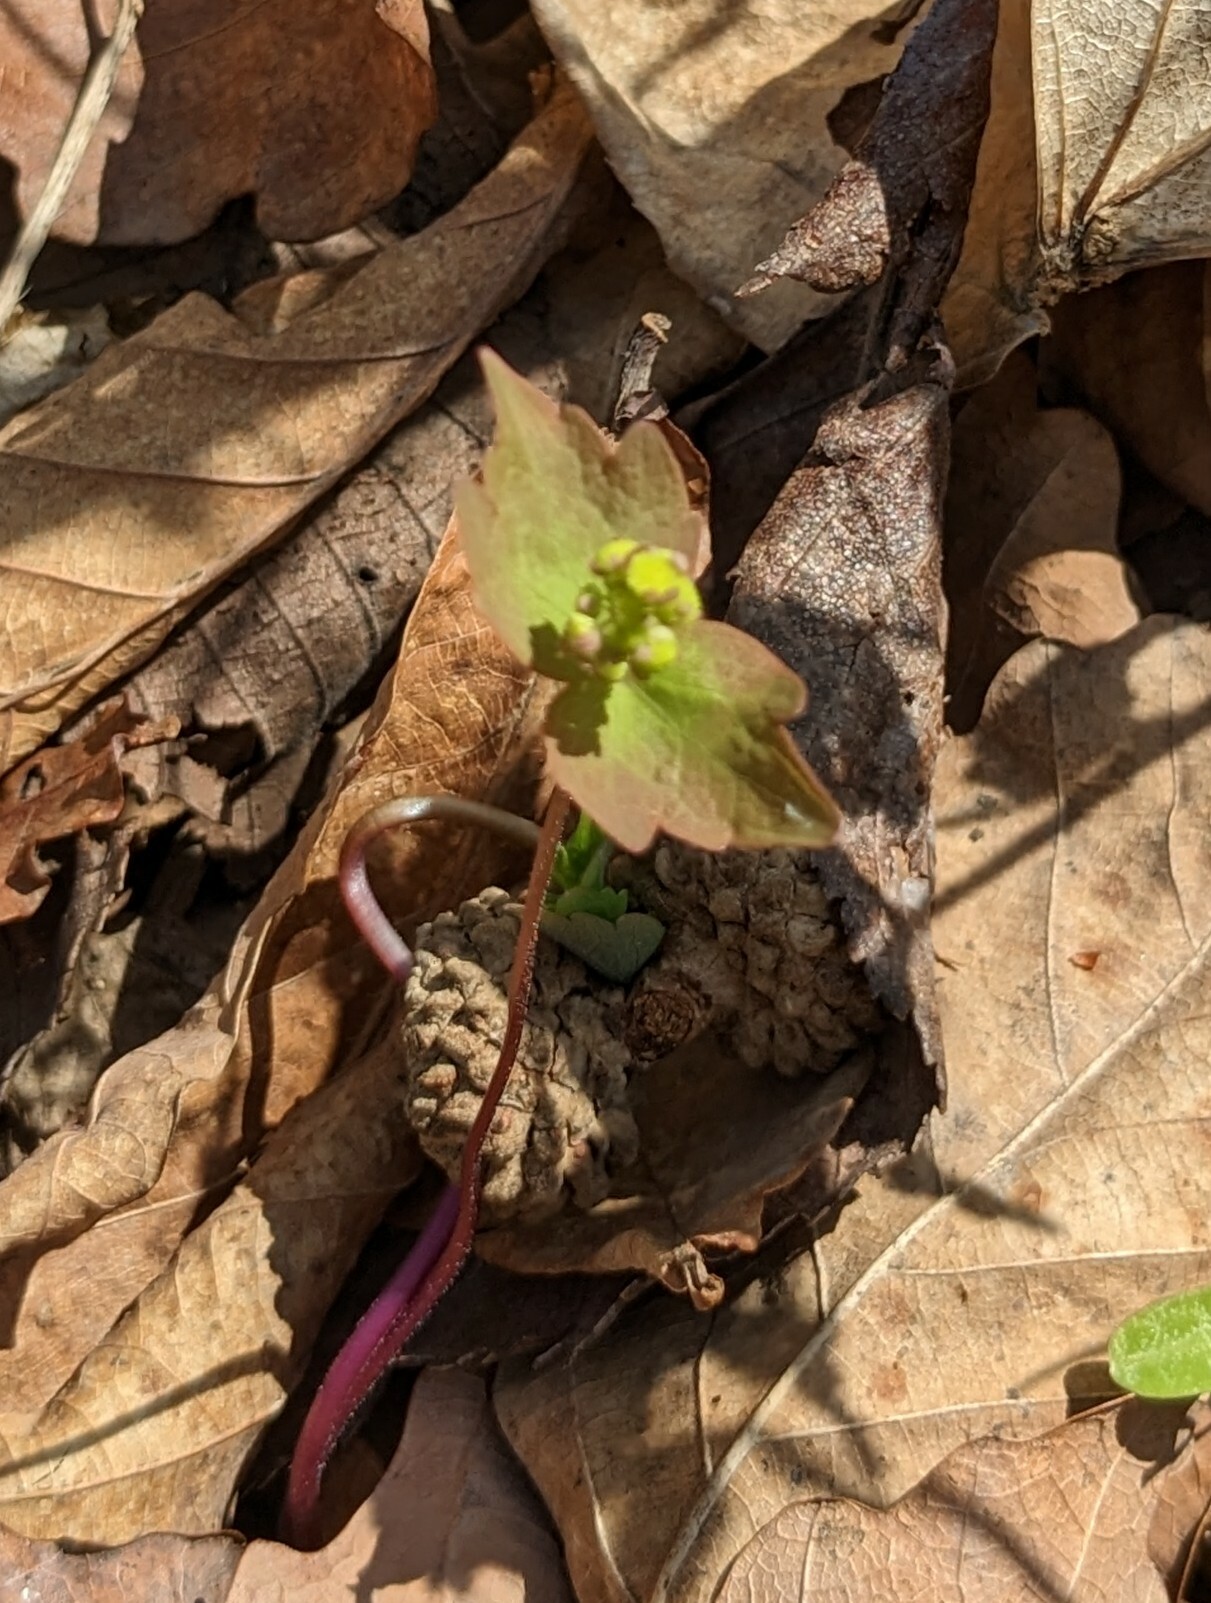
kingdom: Plantae
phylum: Tracheophyta
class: Magnoliopsida
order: Ranunculales
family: Ranunculaceae
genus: Thalictrum
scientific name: Thalictrum filamentosum
